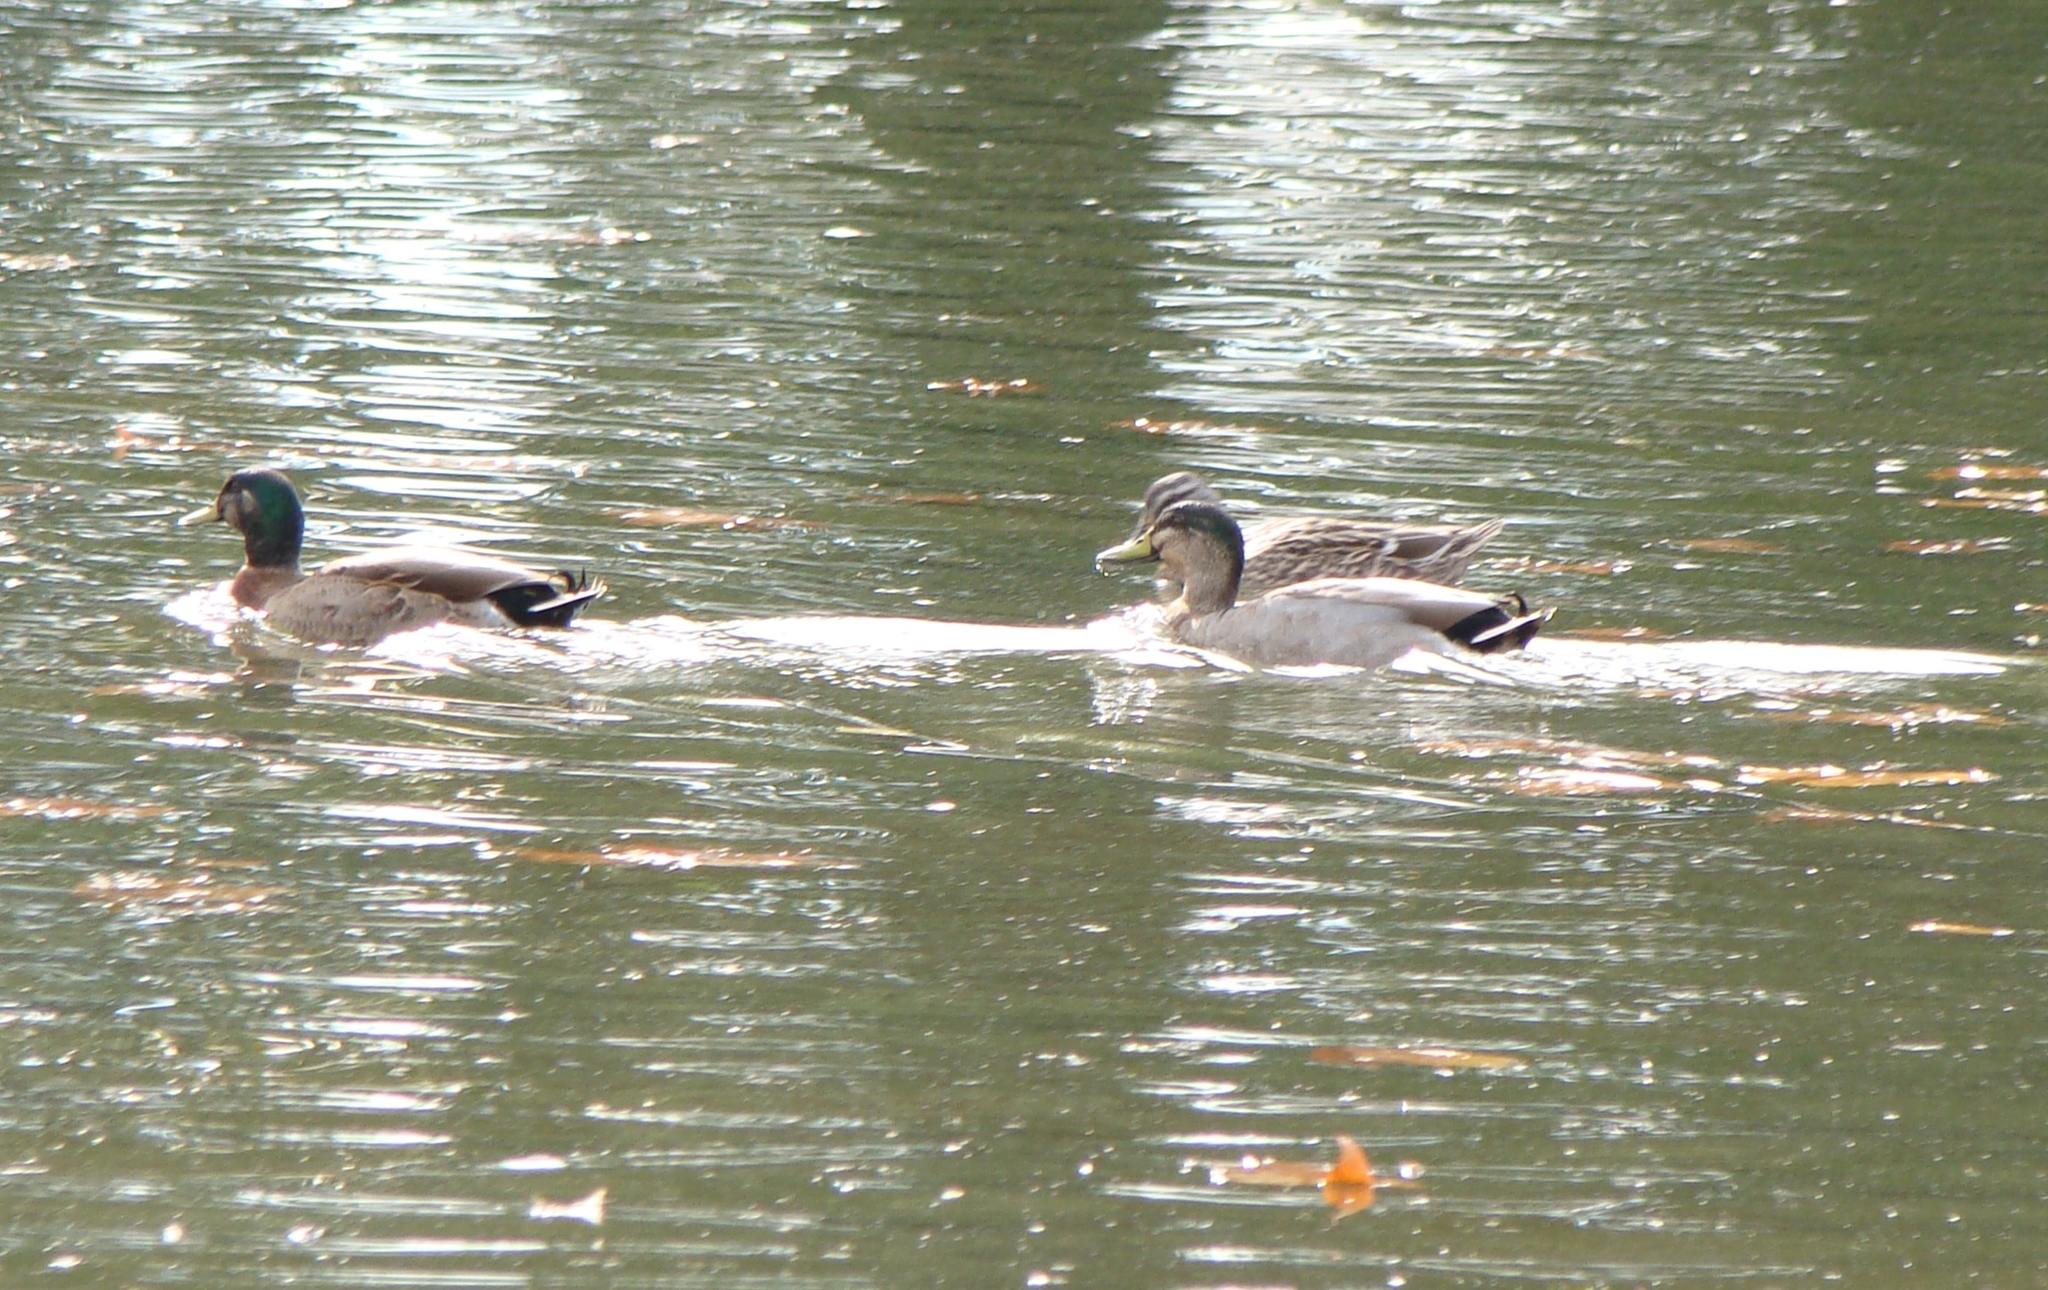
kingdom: Animalia
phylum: Chordata
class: Aves
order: Anseriformes
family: Anatidae
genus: Anas
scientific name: Anas
